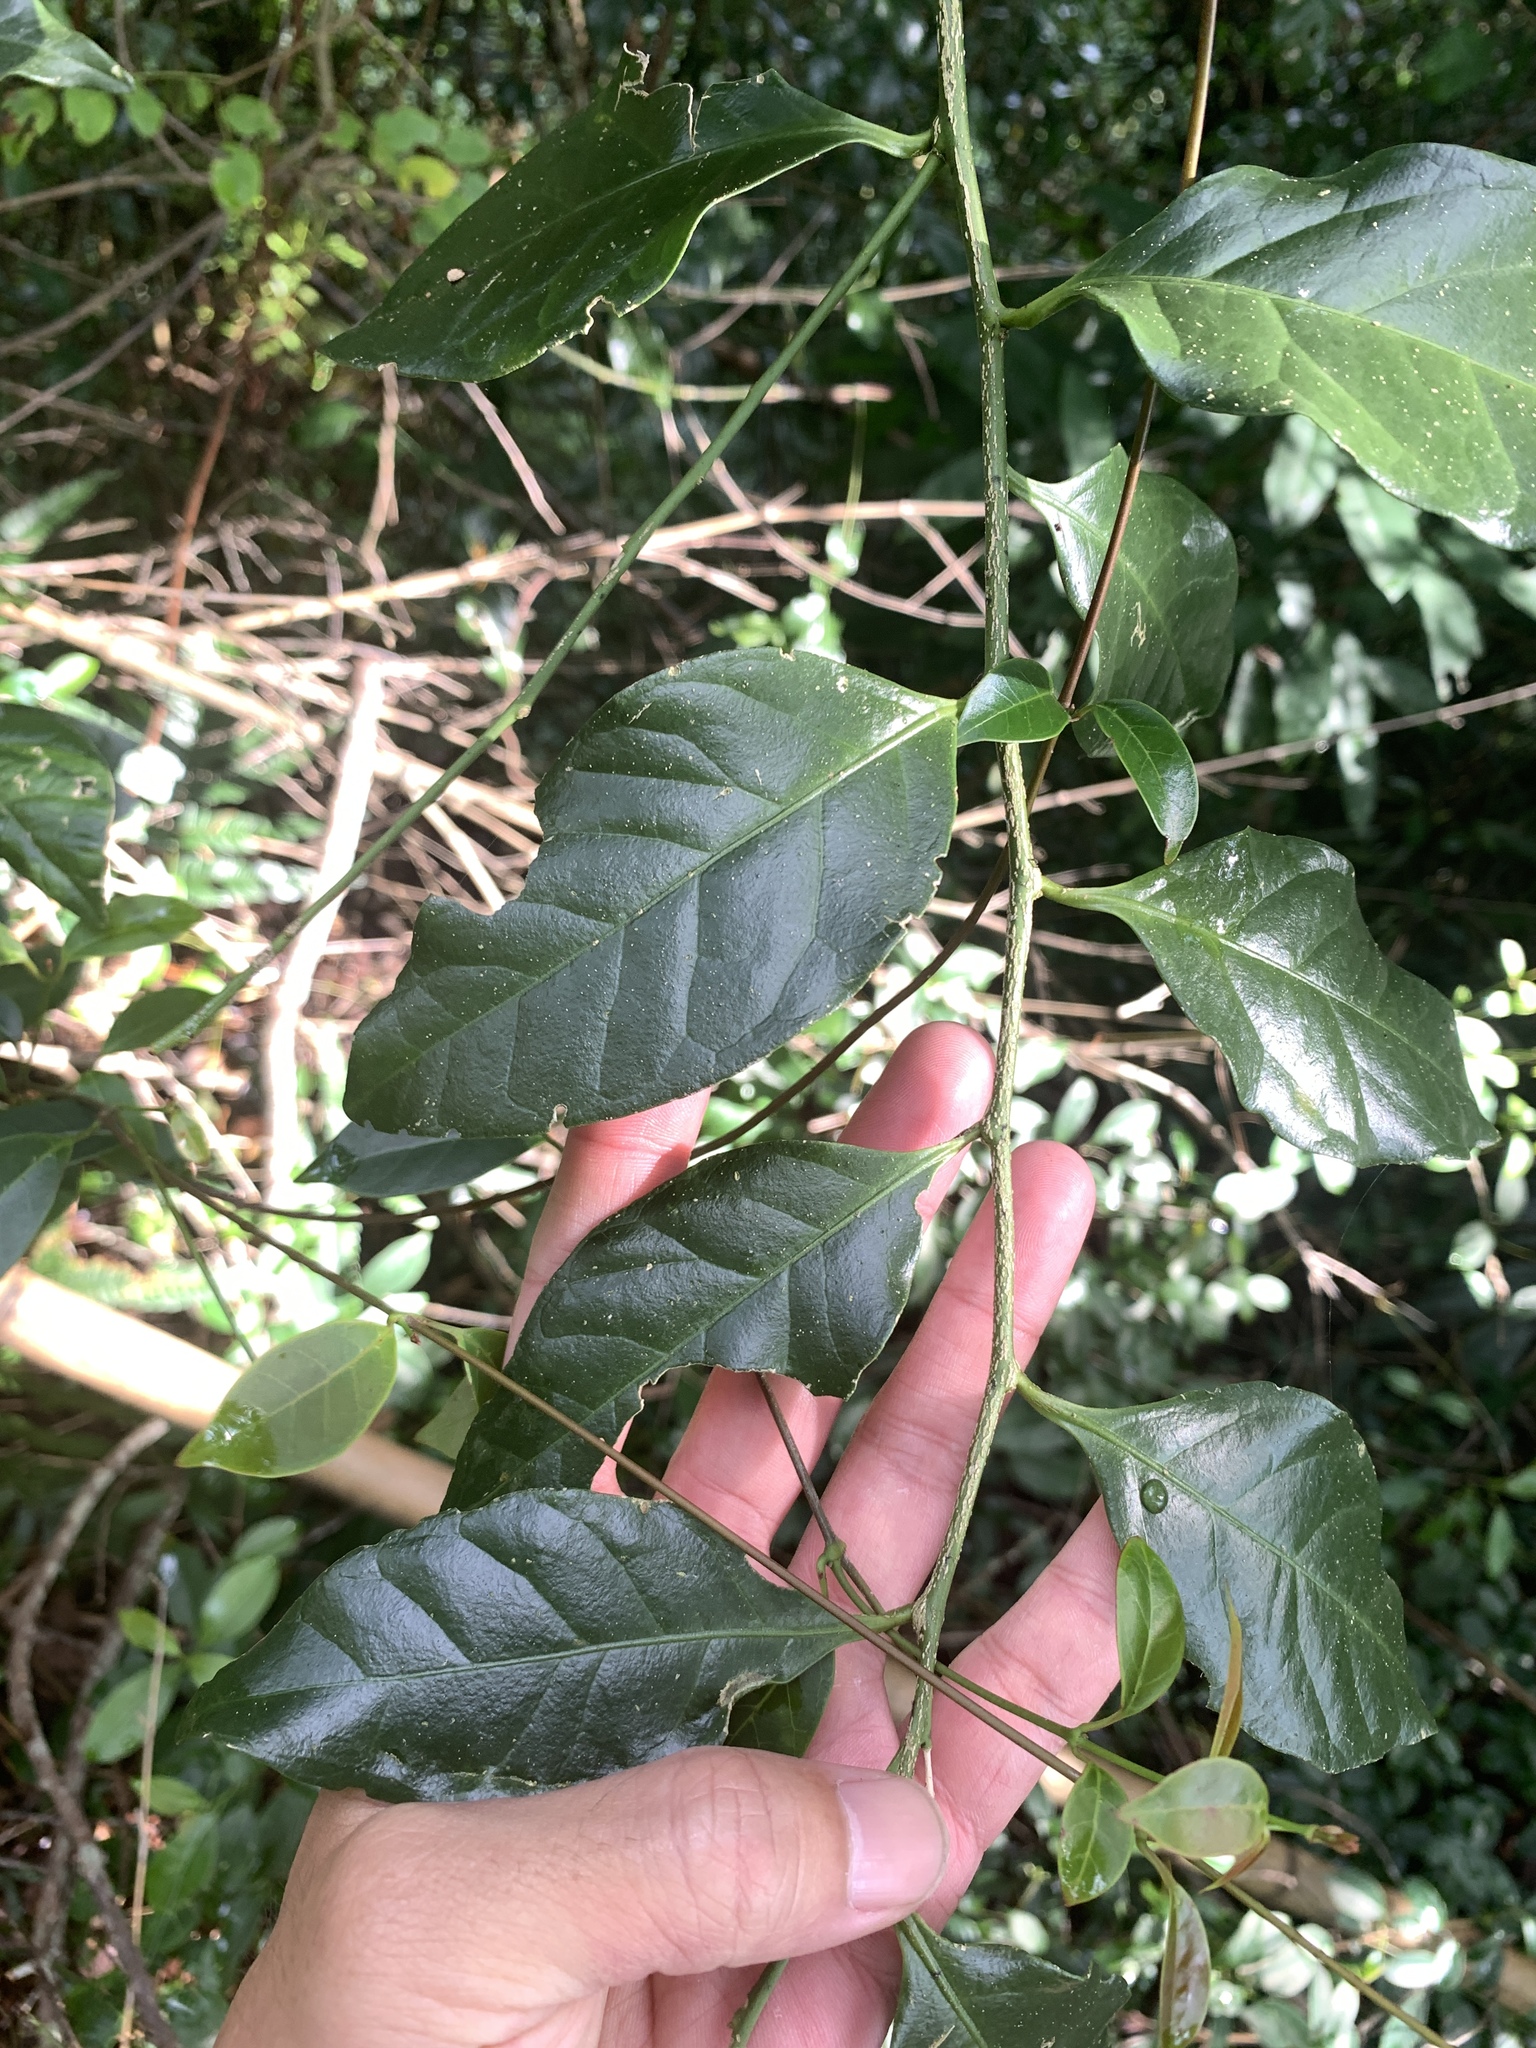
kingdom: Plantae
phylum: Tracheophyta
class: Magnoliopsida
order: Santalales
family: Opiliaceae
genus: Champereia
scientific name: Champereia manillana
